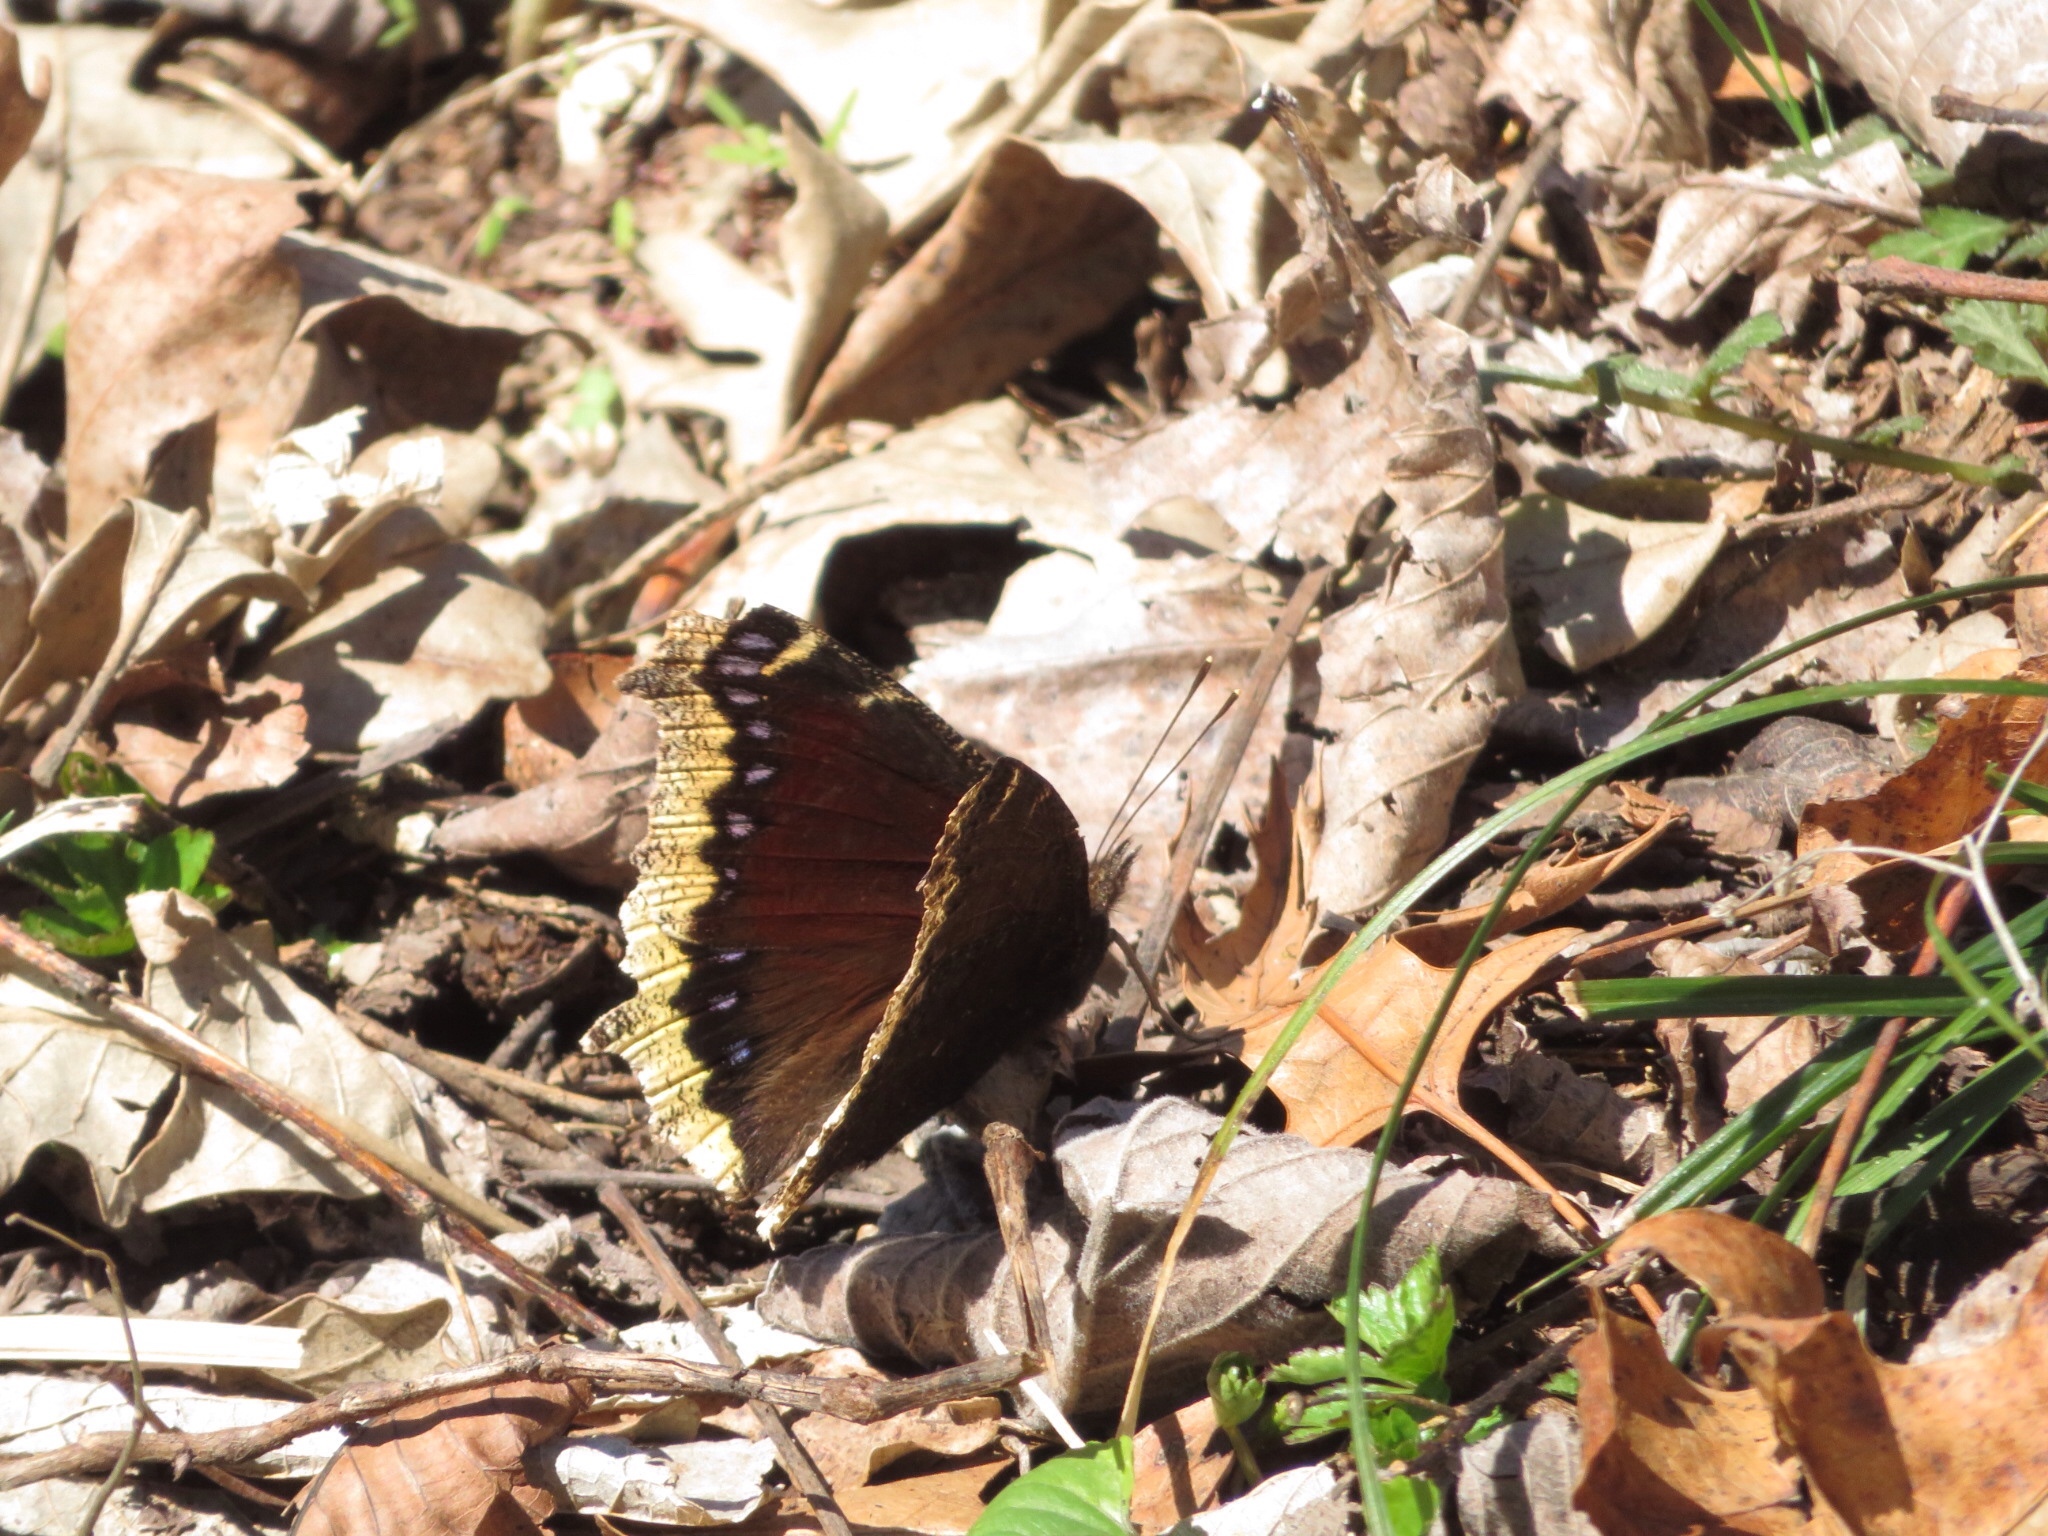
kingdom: Animalia
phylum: Arthropoda
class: Insecta
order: Lepidoptera
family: Nymphalidae
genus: Nymphalis
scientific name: Nymphalis antiopa
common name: Camberwell beauty
